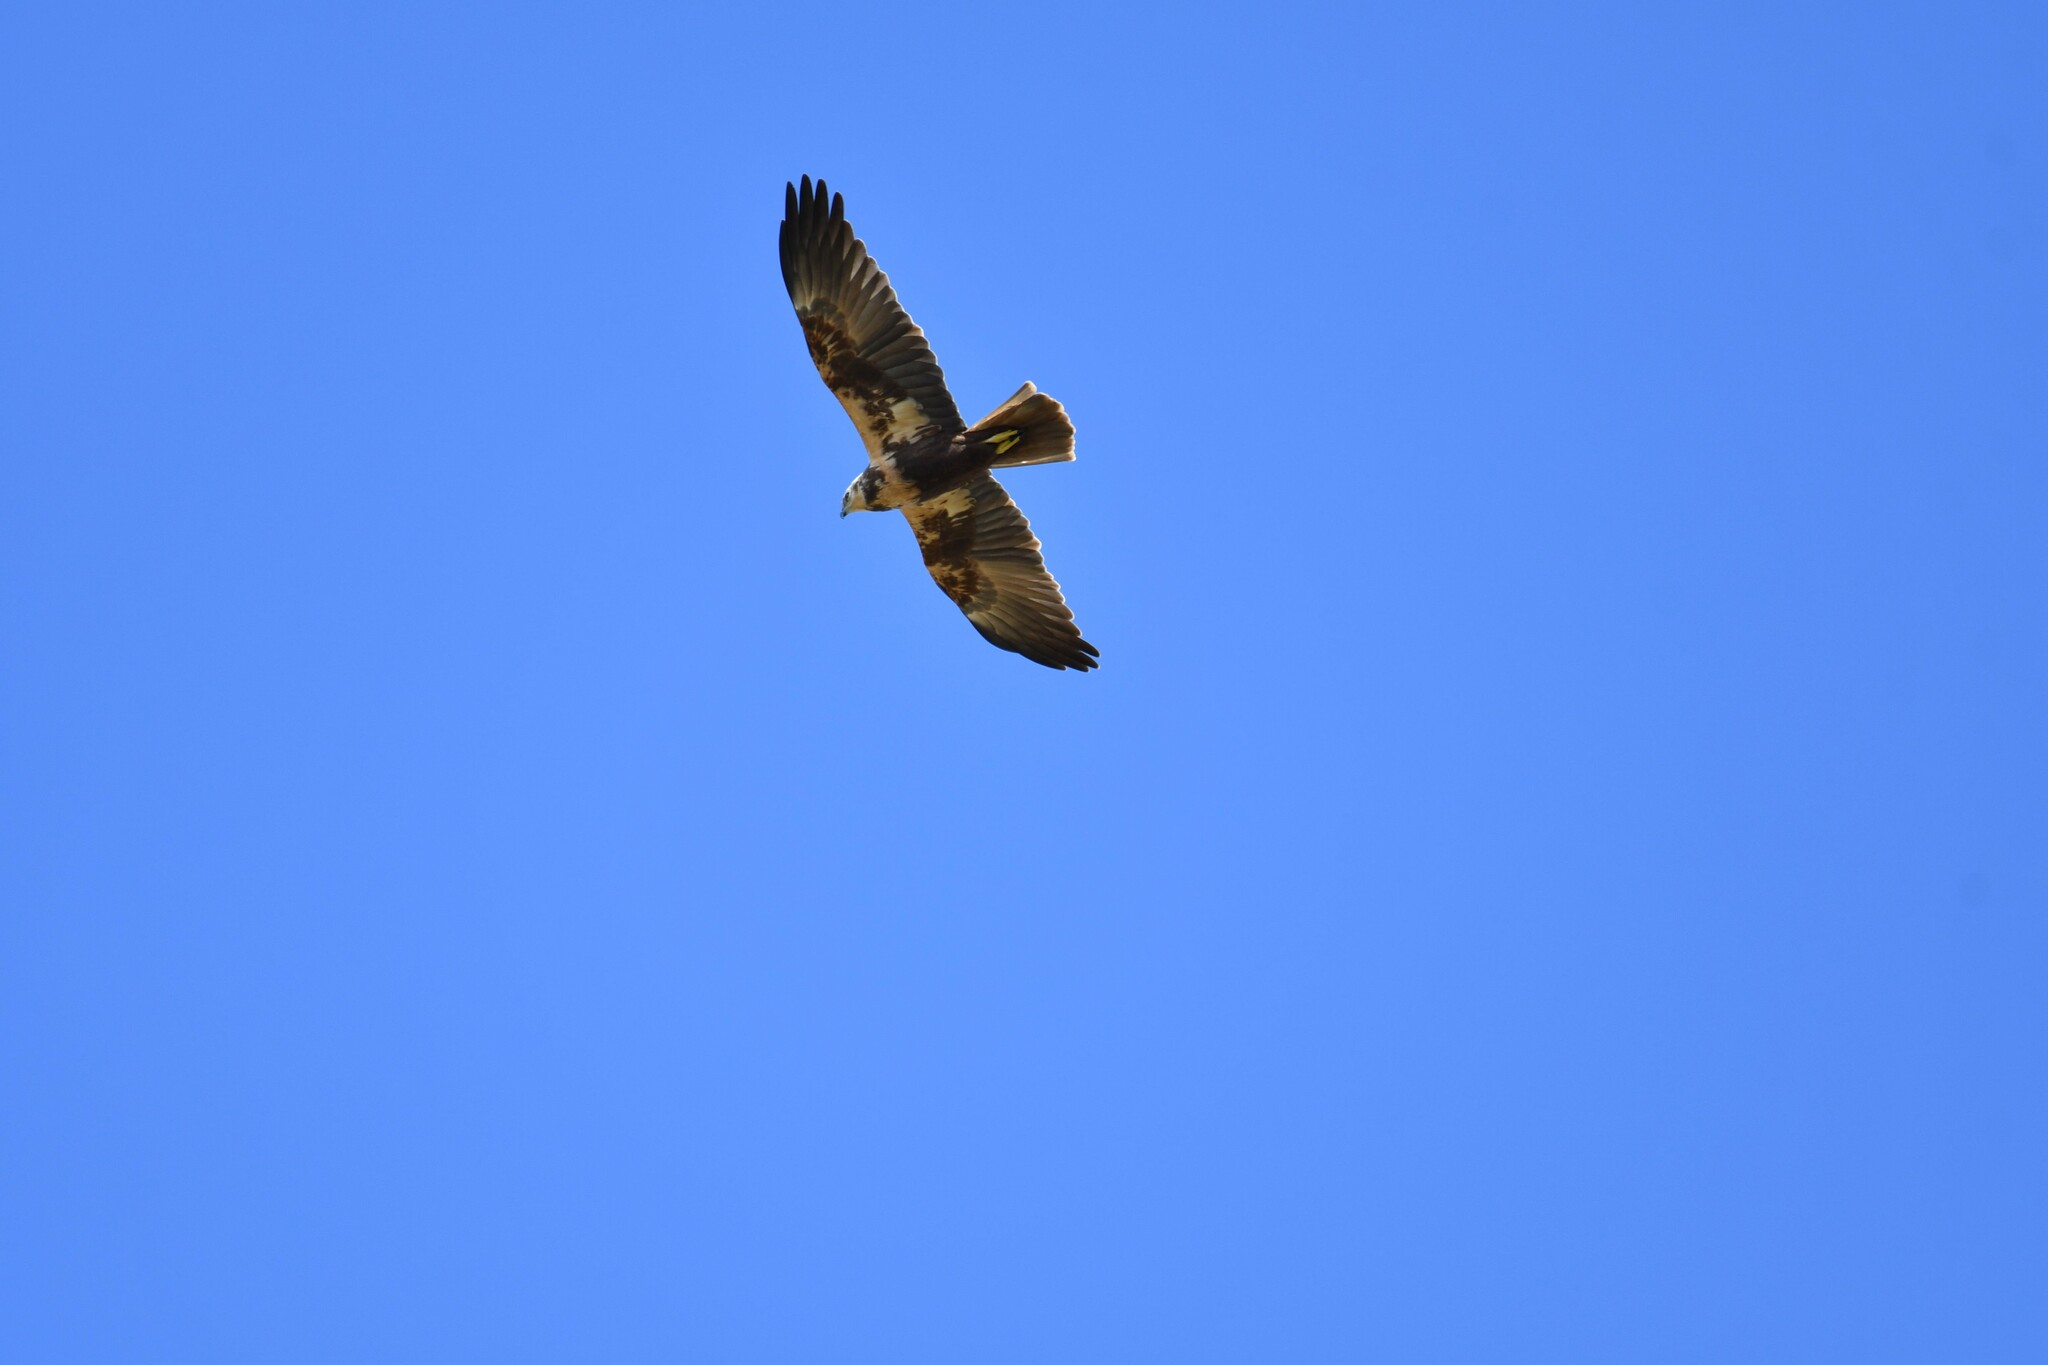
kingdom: Animalia
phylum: Chordata
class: Aves
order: Accipitriformes
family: Accipitridae
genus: Circus
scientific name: Circus aeruginosus
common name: Western marsh harrier
